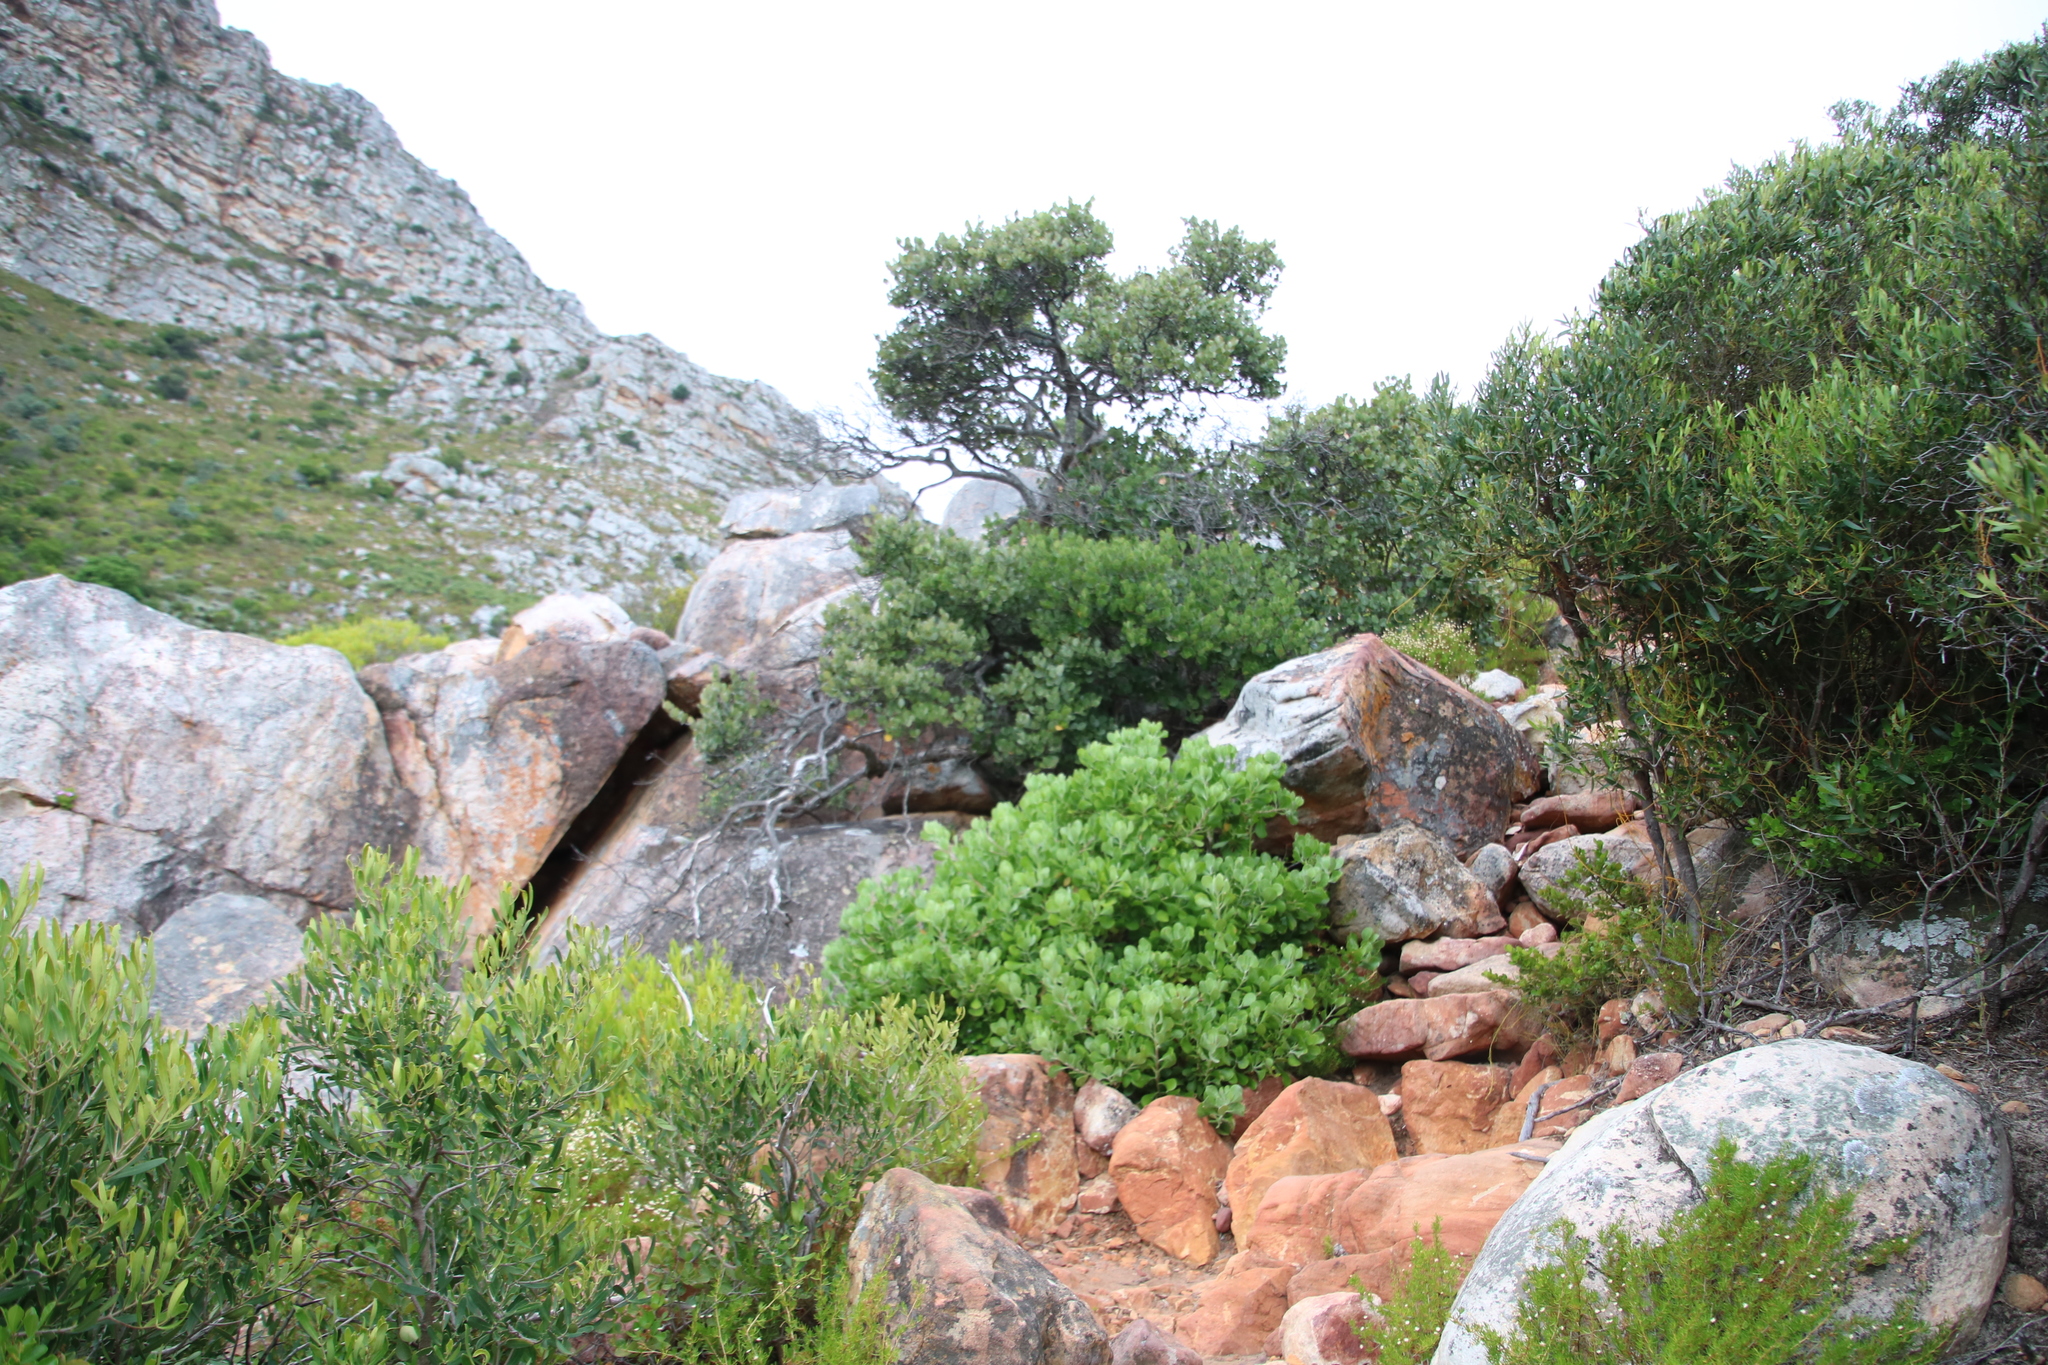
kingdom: Plantae
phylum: Tracheophyta
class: Magnoliopsida
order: Asterales
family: Asteraceae
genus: Osteospermum
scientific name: Osteospermum moniliferum
